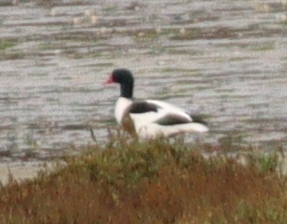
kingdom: Animalia
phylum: Chordata
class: Aves
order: Anseriformes
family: Anatidae
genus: Tadorna
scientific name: Tadorna tadorna
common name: Common shelduck
